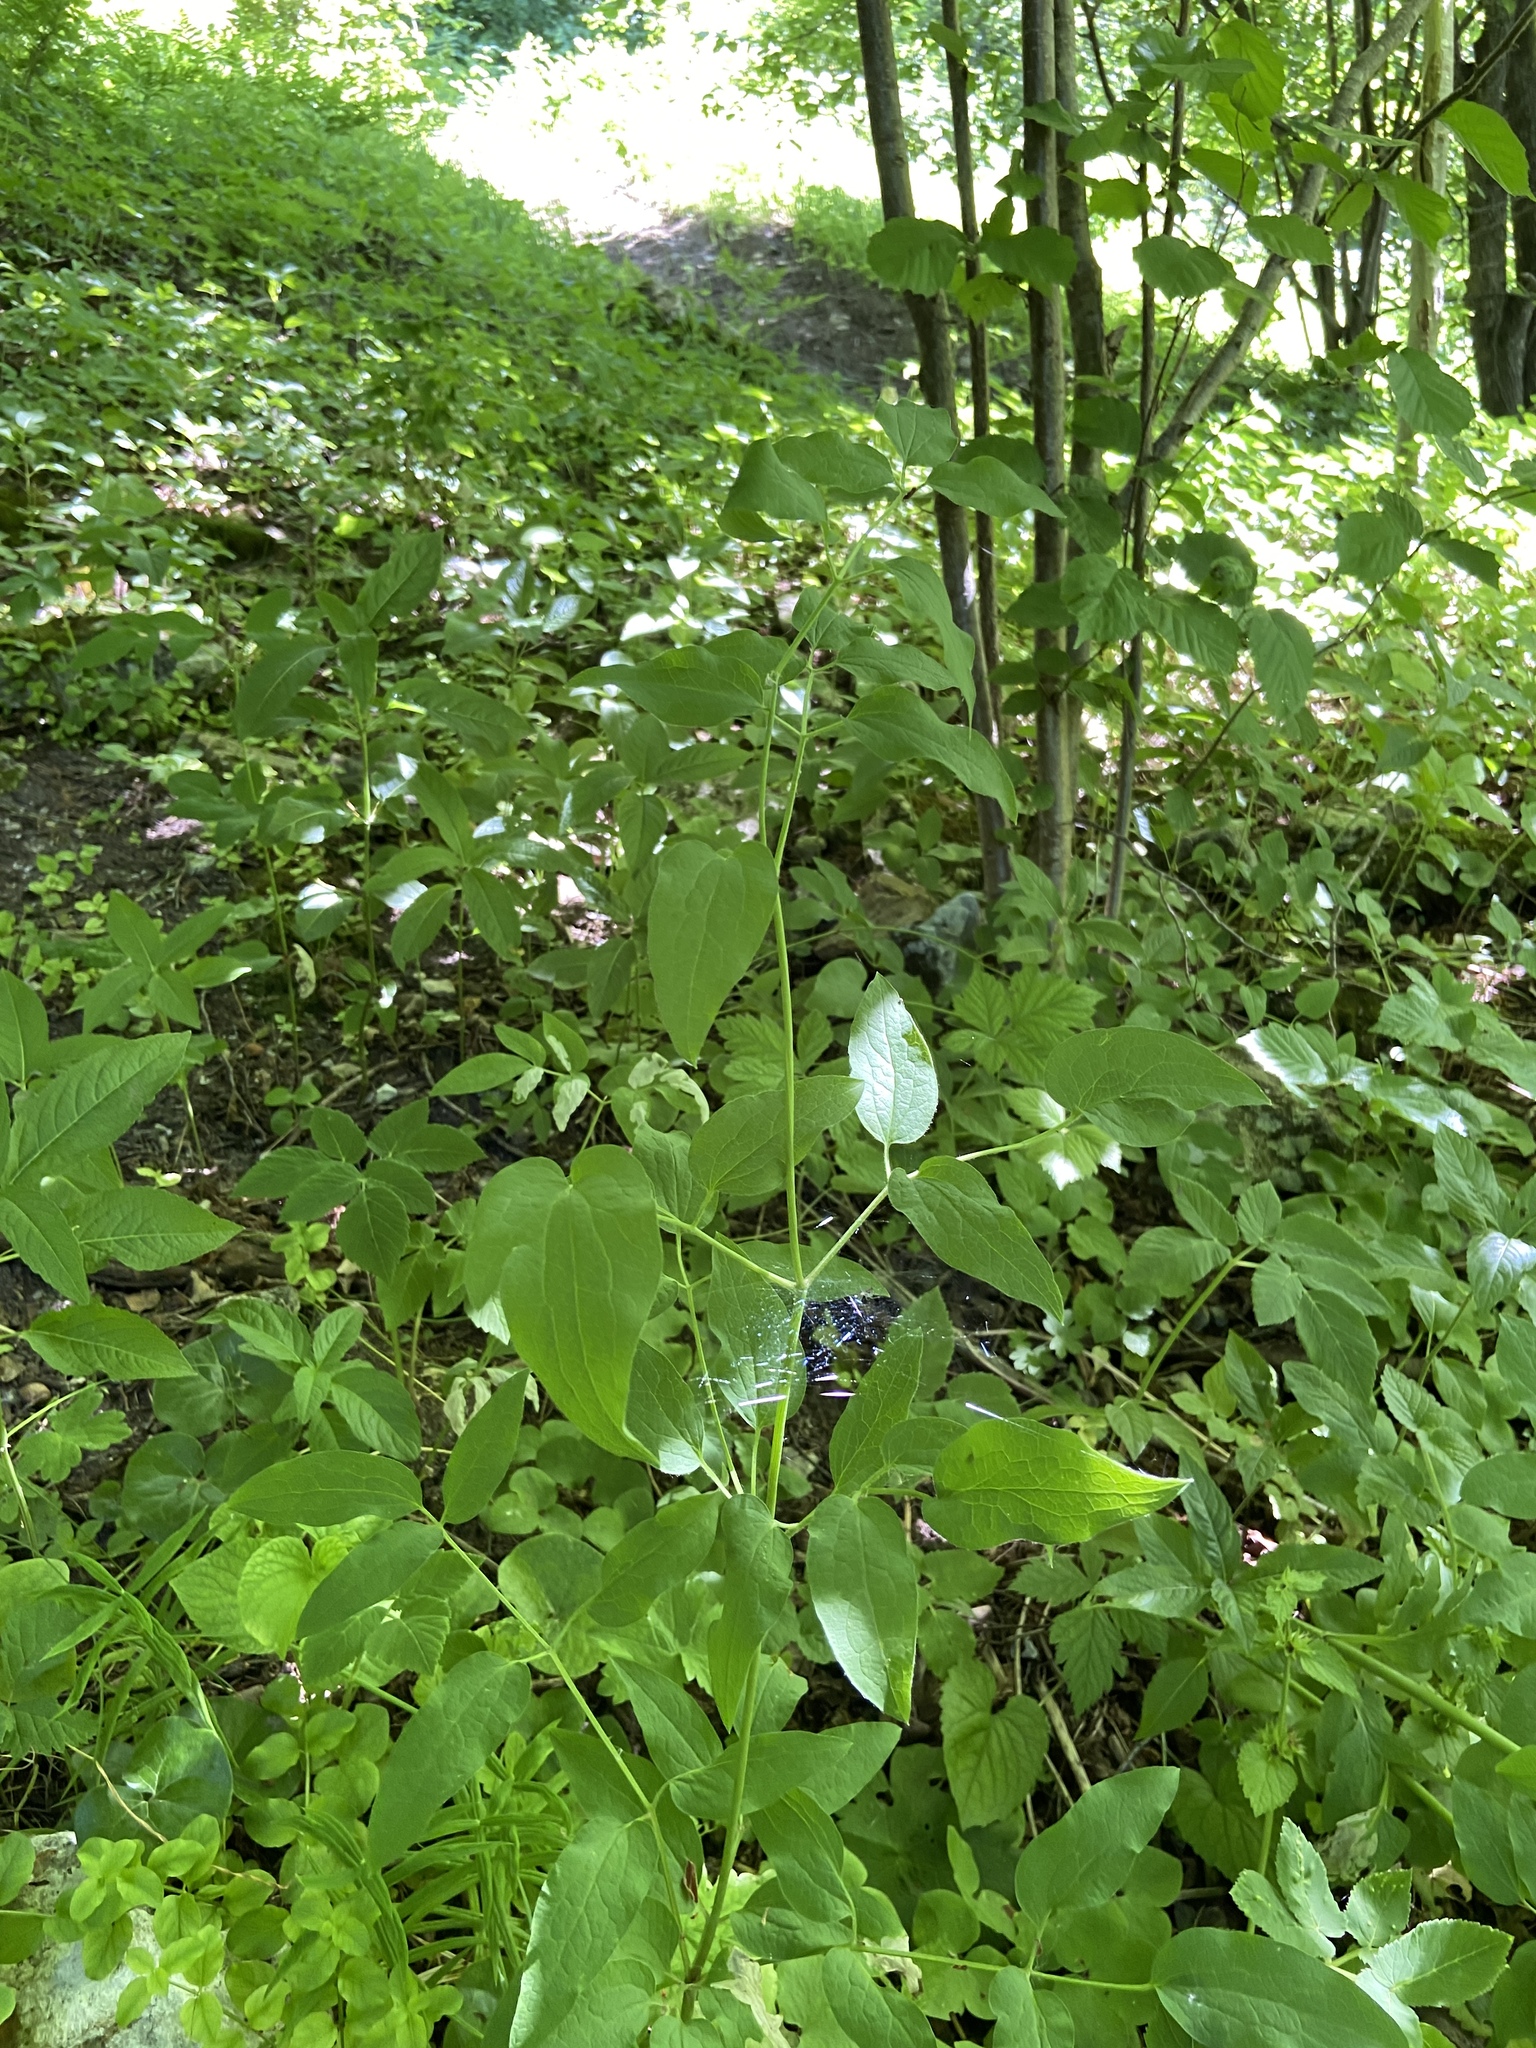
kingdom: Plantae
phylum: Tracheophyta
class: Magnoliopsida
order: Ranunculales
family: Ranunculaceae
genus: Clematis
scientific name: Clematis recta
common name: Ground clematis
